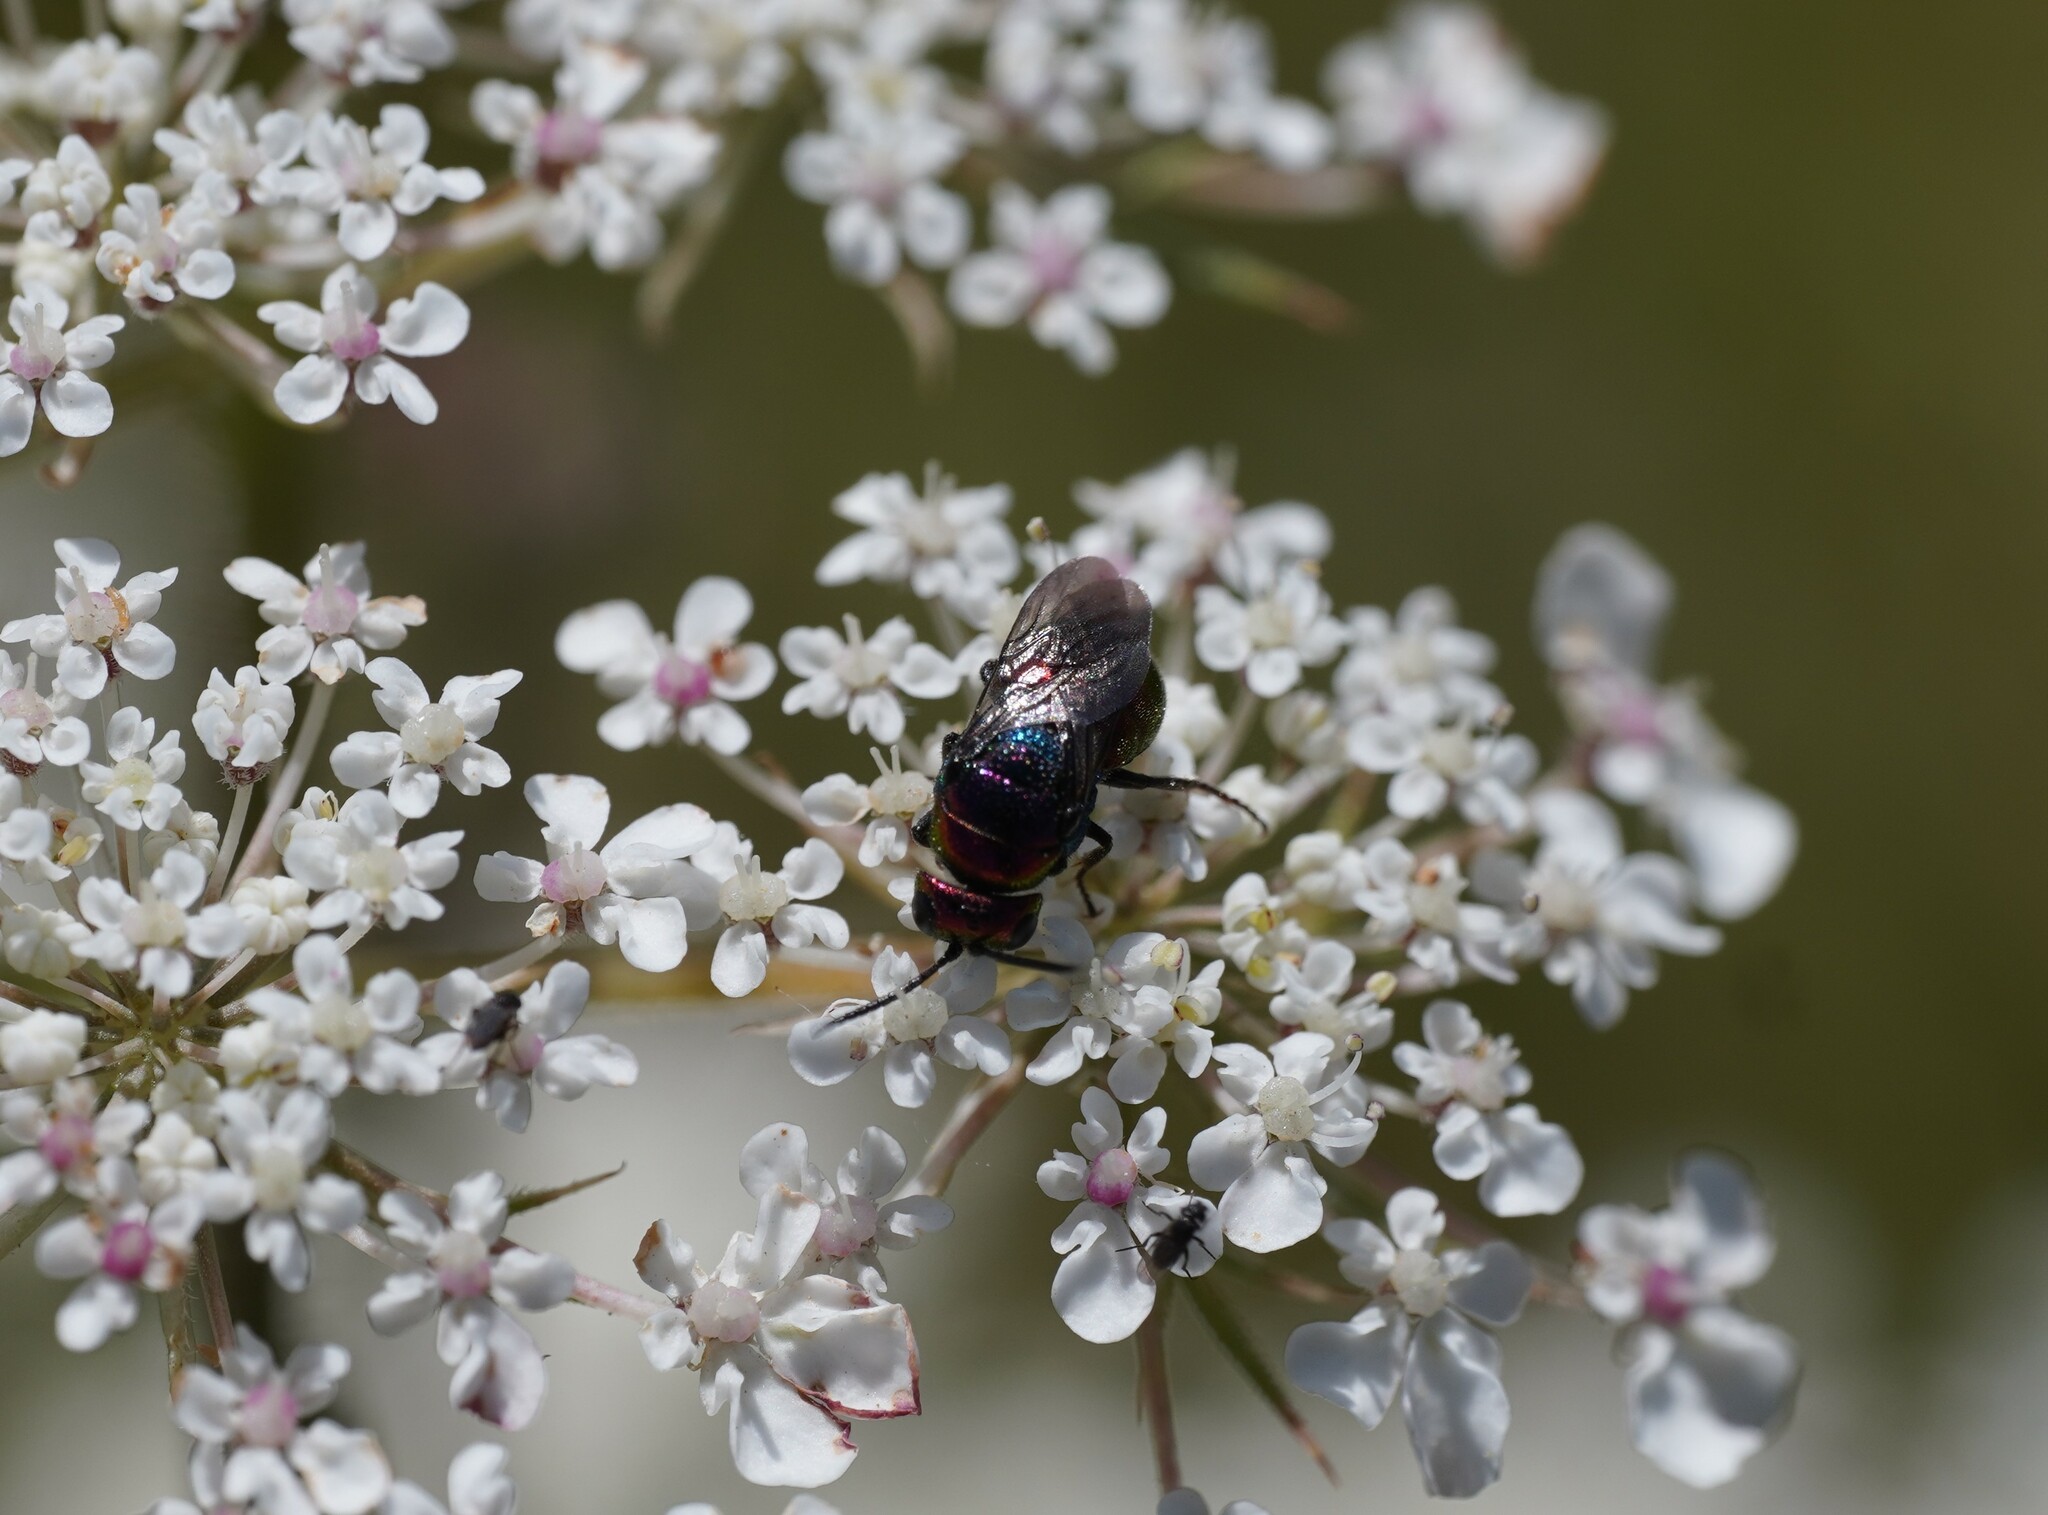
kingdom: Animalia
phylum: Arthropoda
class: Insecta
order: Hymenoptera
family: Chrysididae
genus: Holopyga
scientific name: Holopyga fervida
